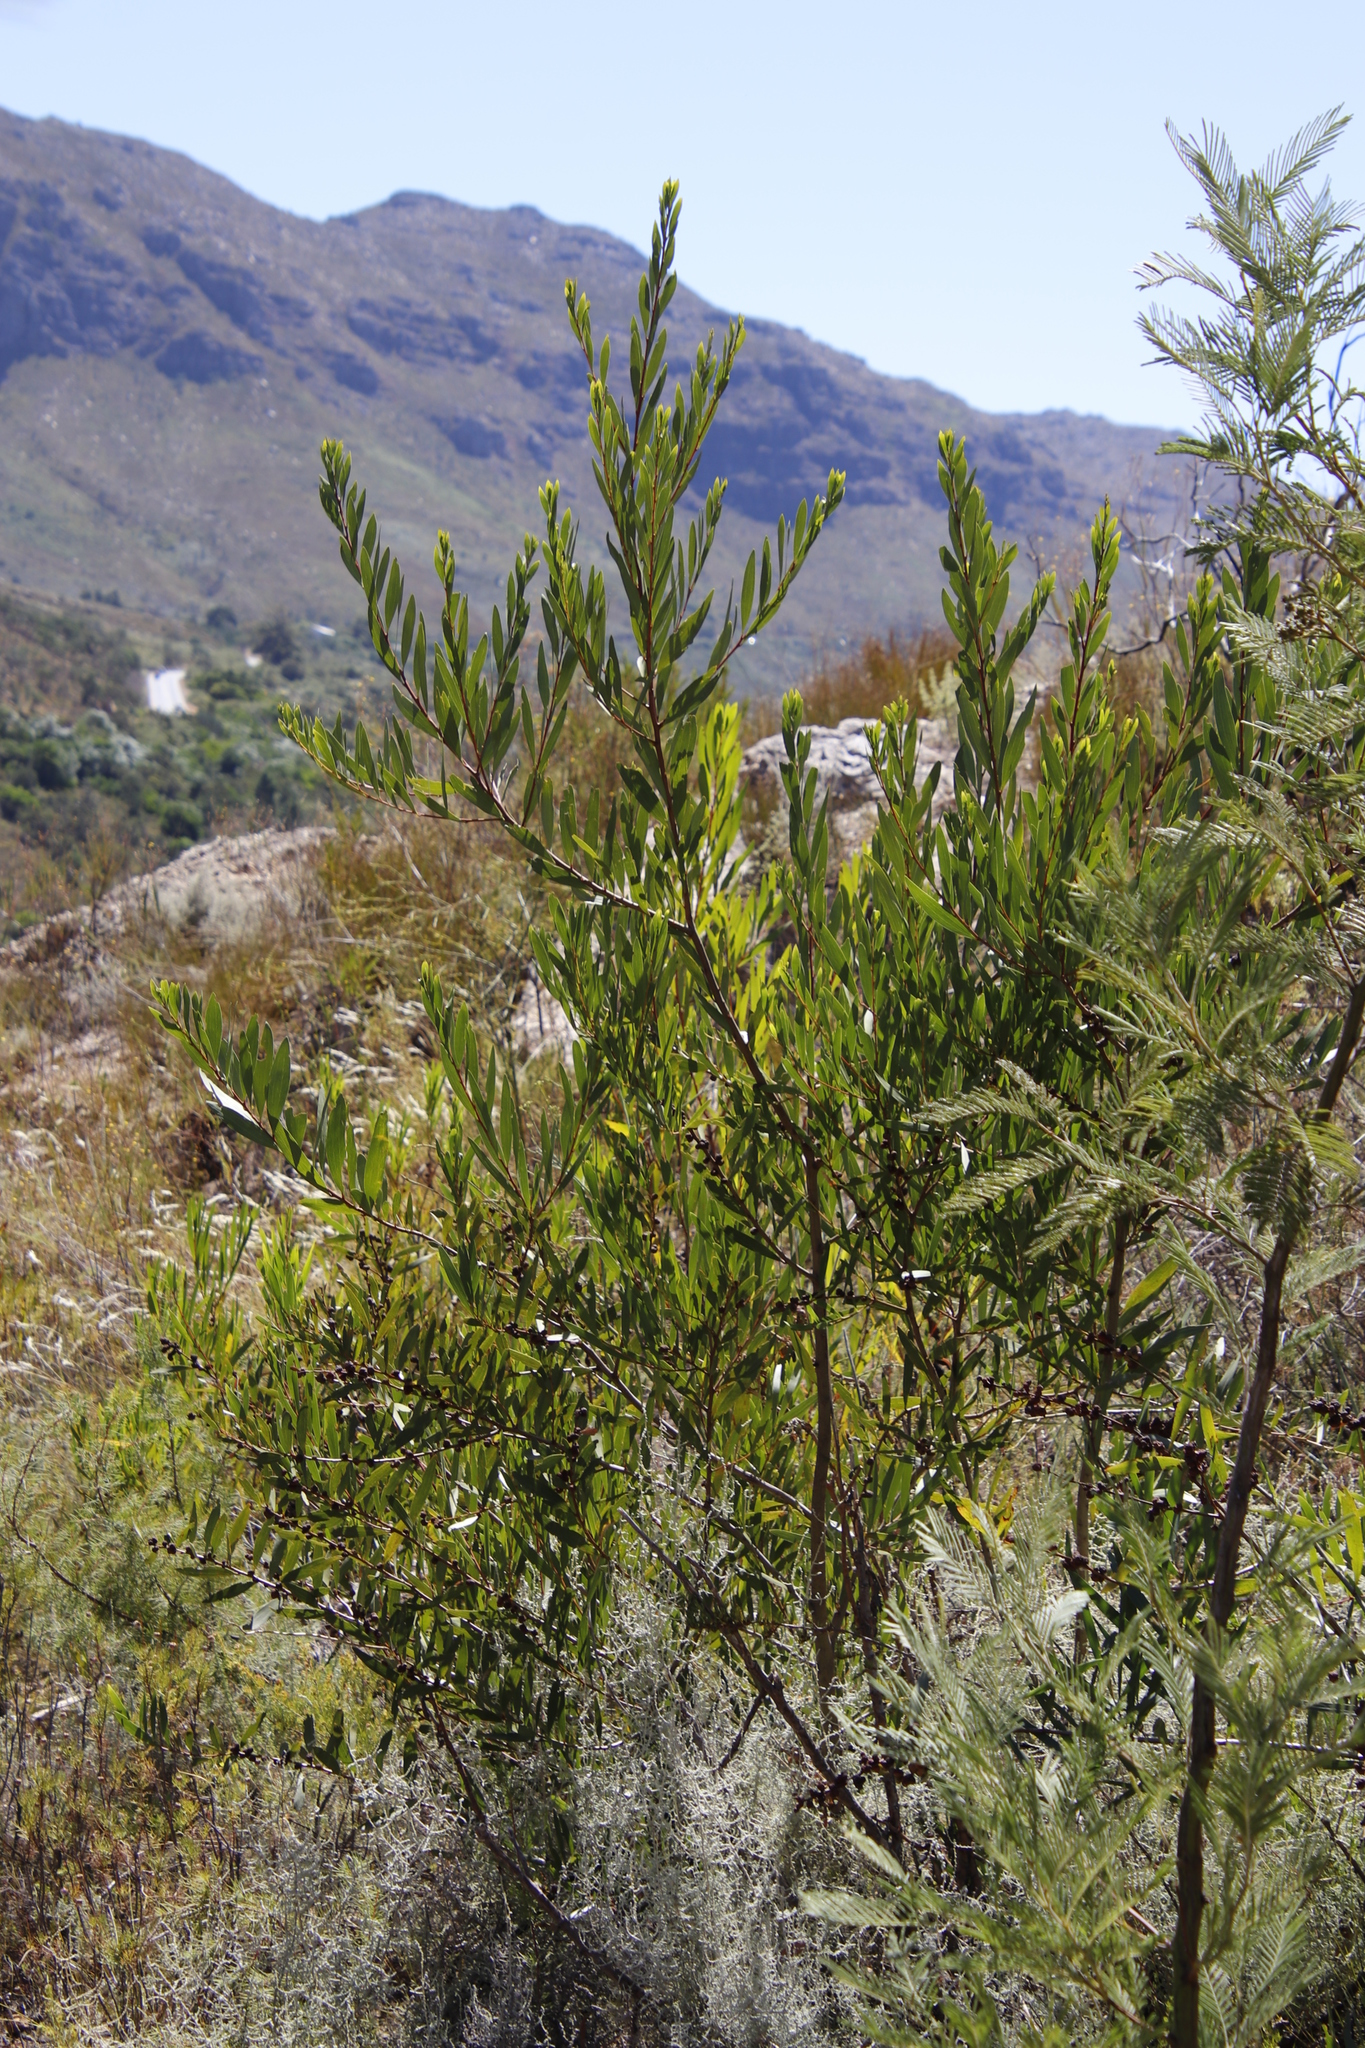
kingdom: Plantae
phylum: Tracheophyta
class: Magnoliopsida
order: Fabales
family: Fabaceae
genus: Acacia
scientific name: Acacia longifolia
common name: Sydney golden wattle
